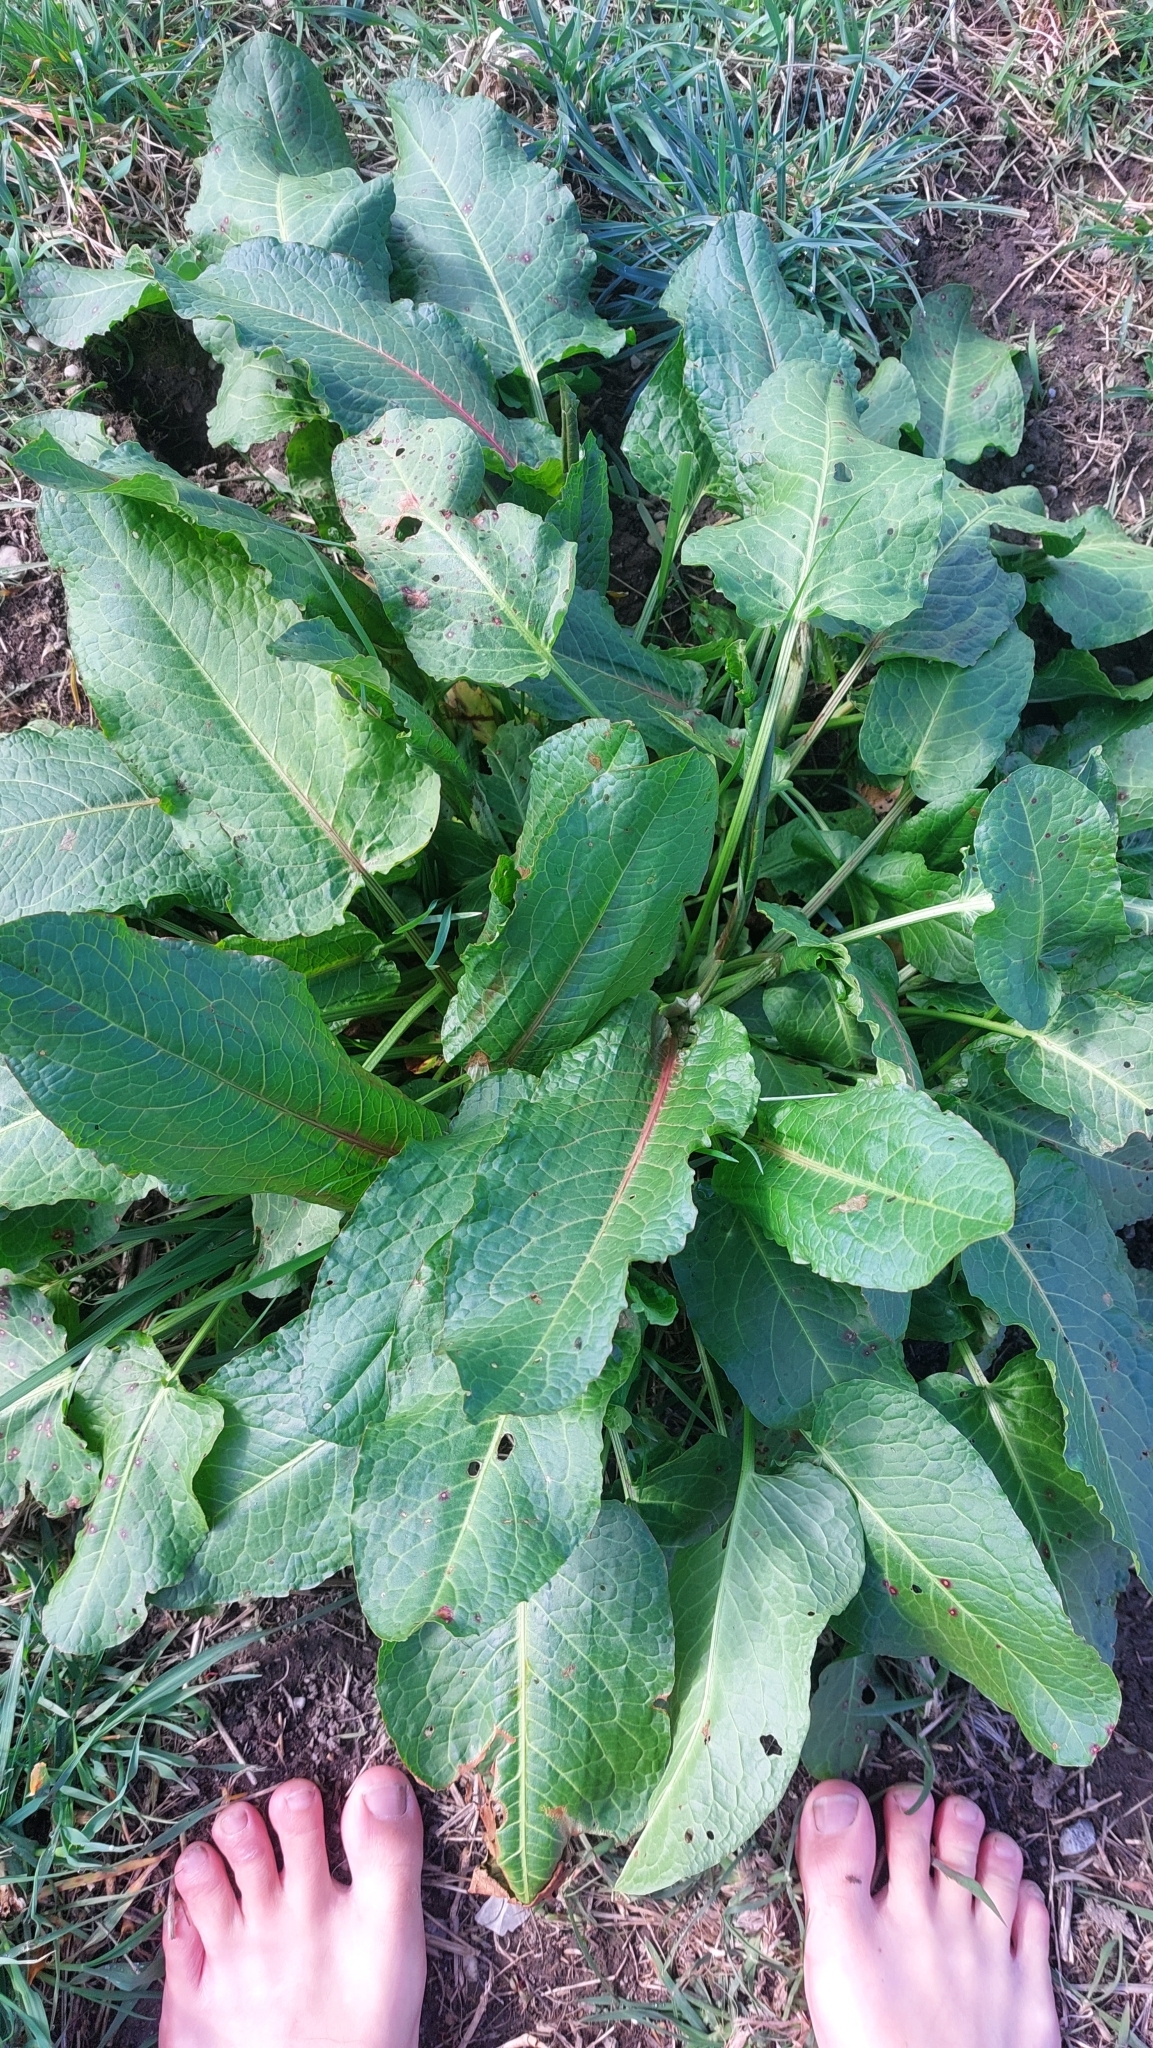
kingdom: Plantae
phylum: Tracheophyta
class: Magnoliopsida
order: Caryophyllales
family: Polygonaceae
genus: Rumex
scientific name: Rumex obtusifolius
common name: Bitter dock
